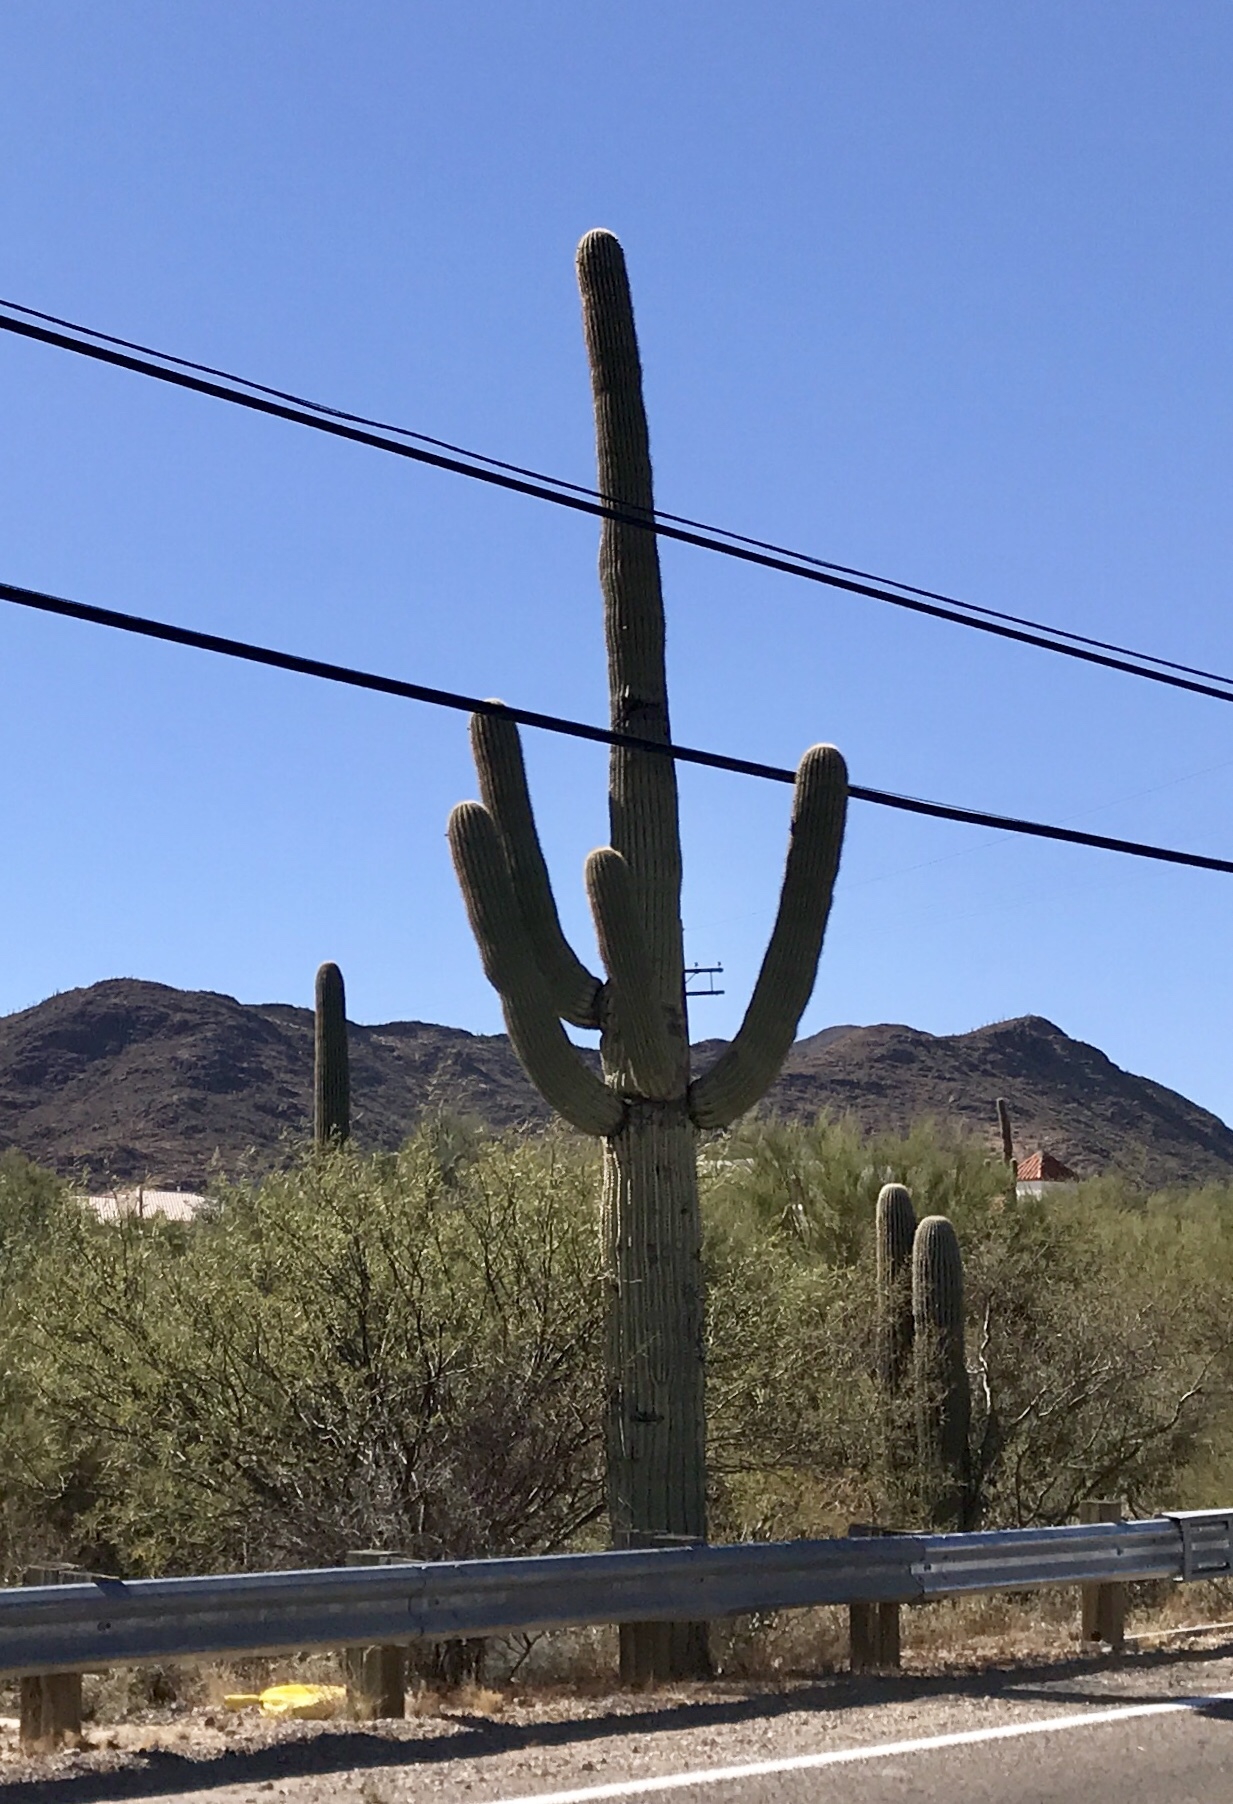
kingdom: Plantae
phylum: Tracheophyta
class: Magnoliopsida
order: Caryophyllales
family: Cactaceae
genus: Carnegiea
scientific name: Carnegiea gigantea
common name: Saguaro
